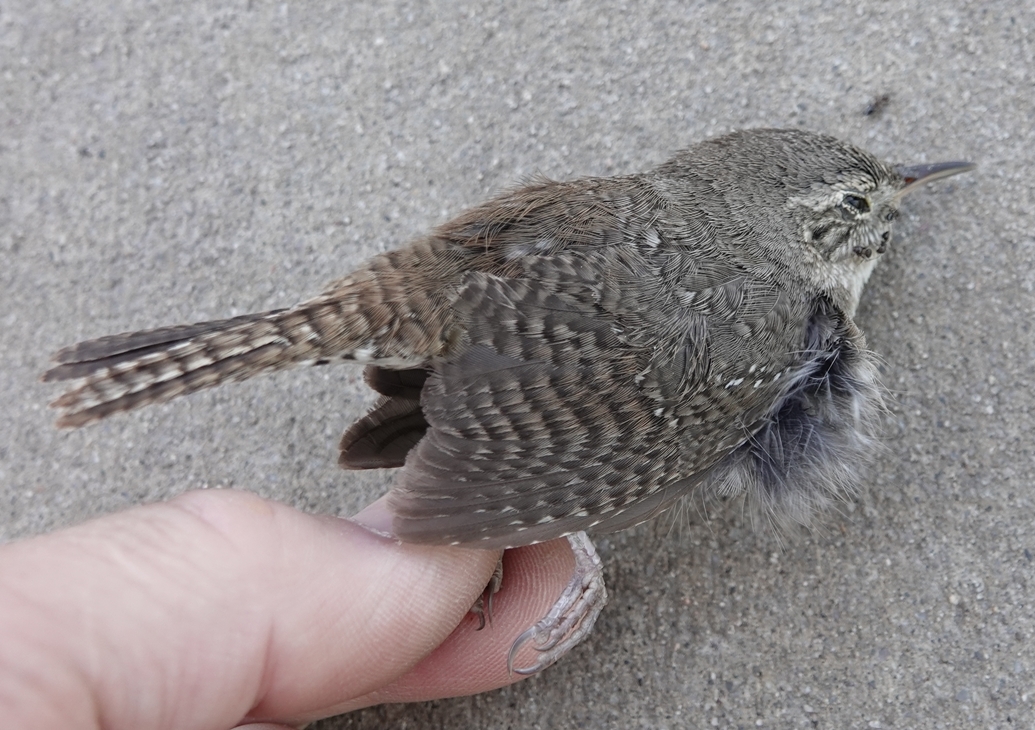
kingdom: Animalia
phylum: Chordata
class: Aves
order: Passeriformes
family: Troglodytidae
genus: Troglodytes
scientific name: Troglodytes aedon
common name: House wren
